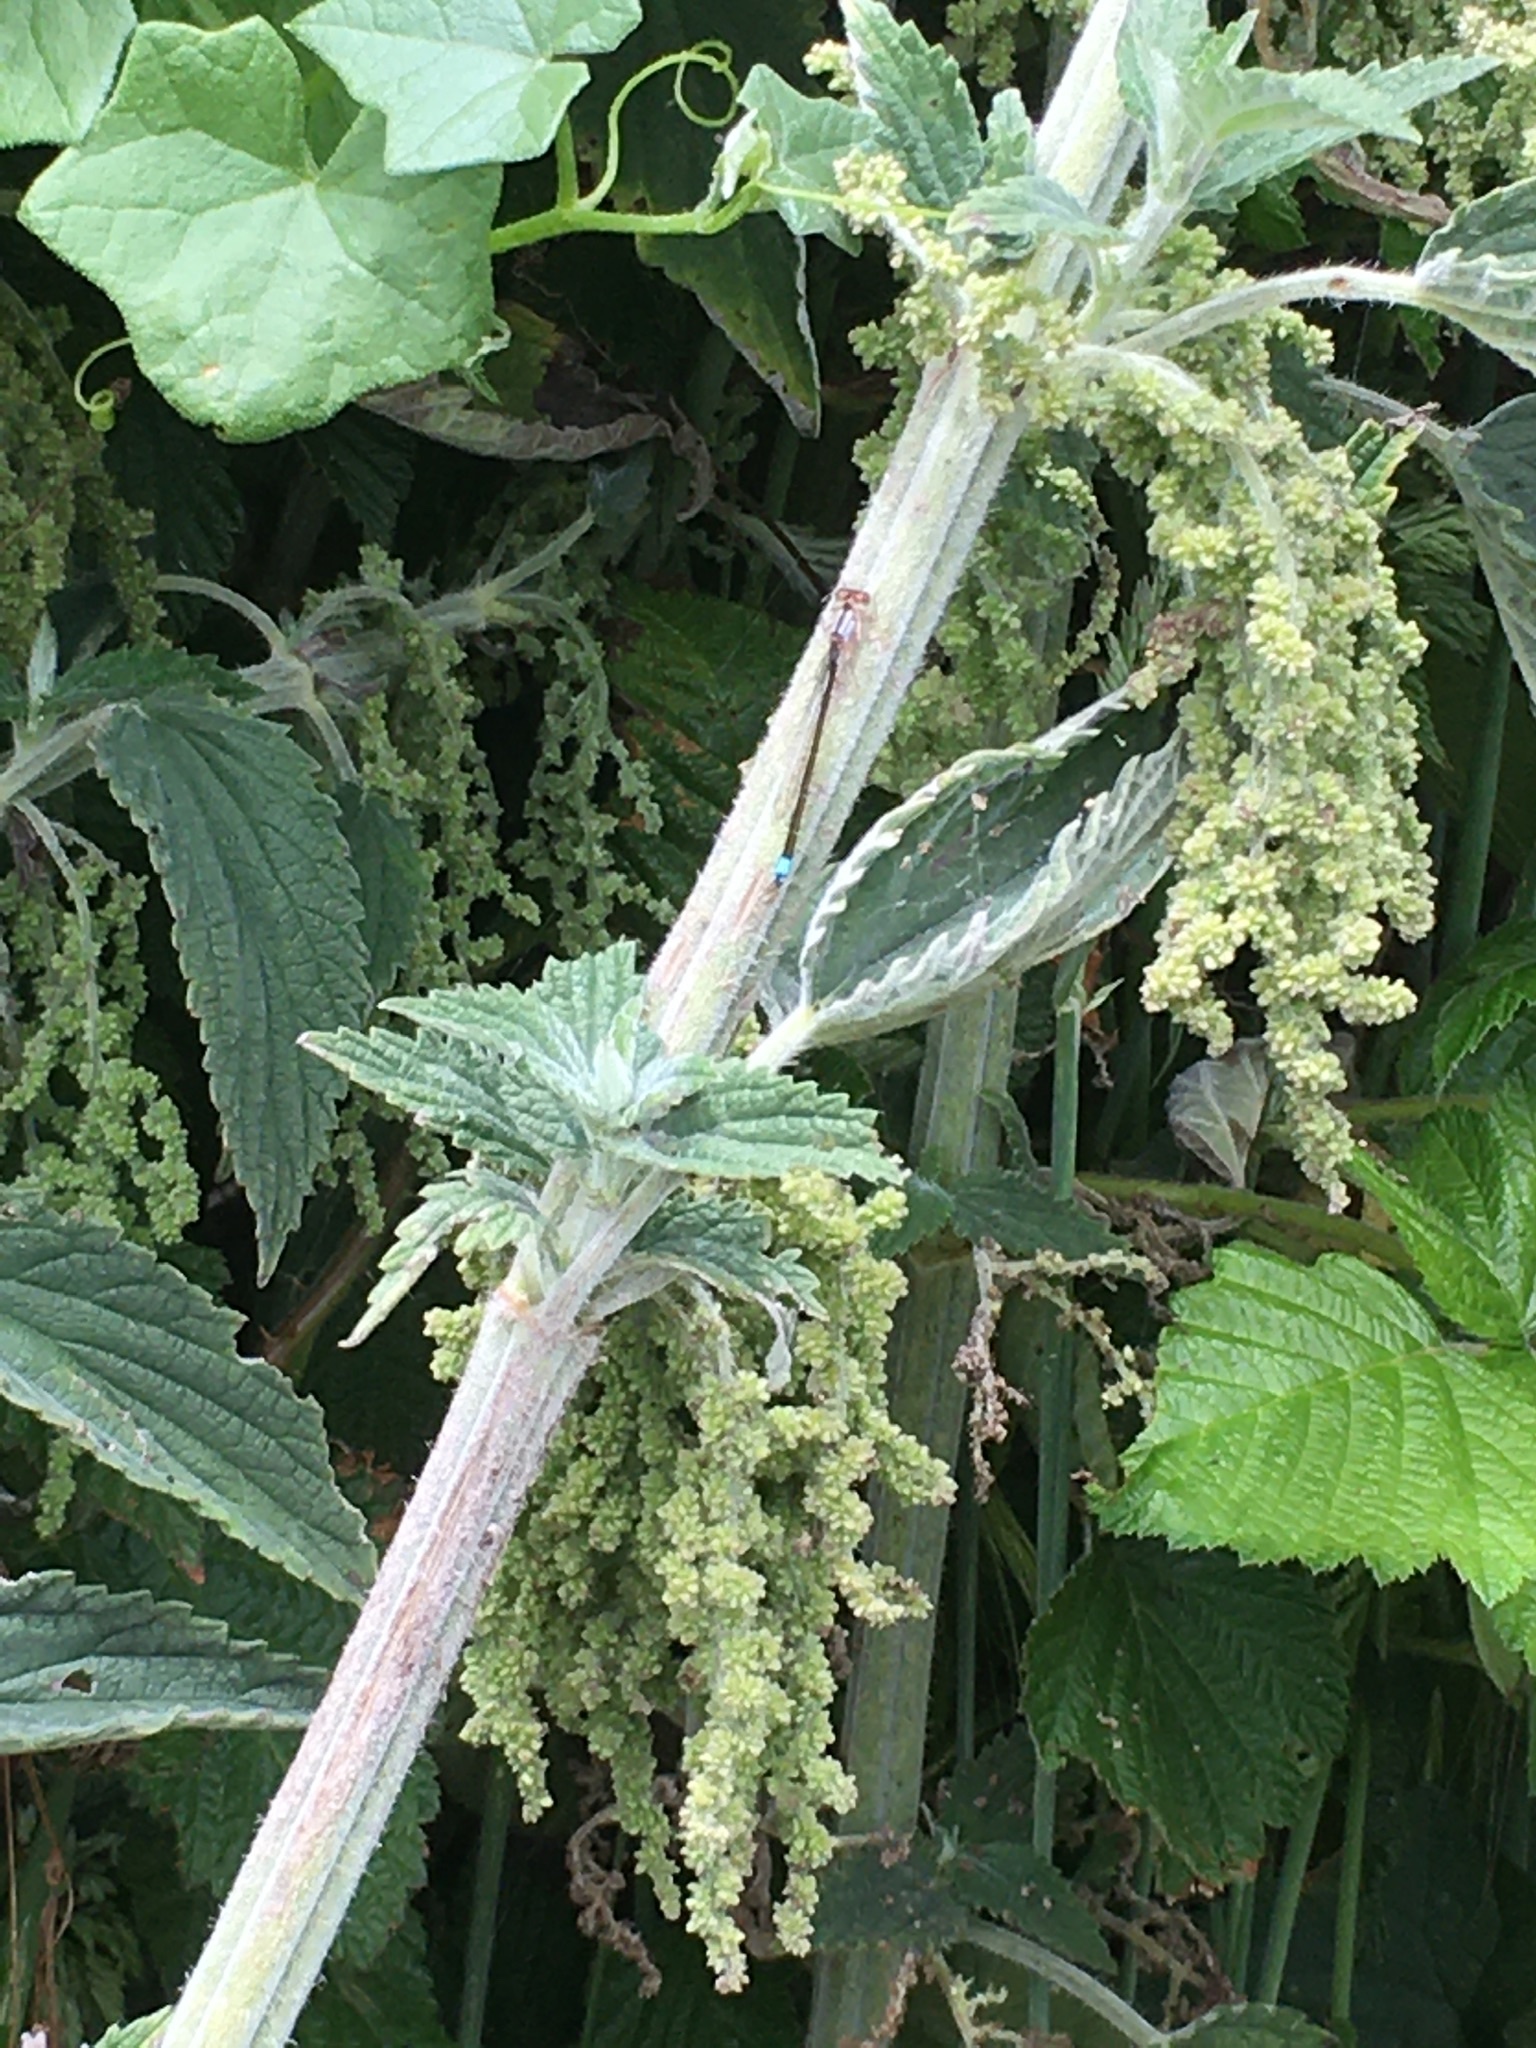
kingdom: Animalia
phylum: Arthropoda
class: Insecta
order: Odonata
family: Coenagrionidae
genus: Ischnura
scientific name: Ischnura cervula
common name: Pacific forktail
